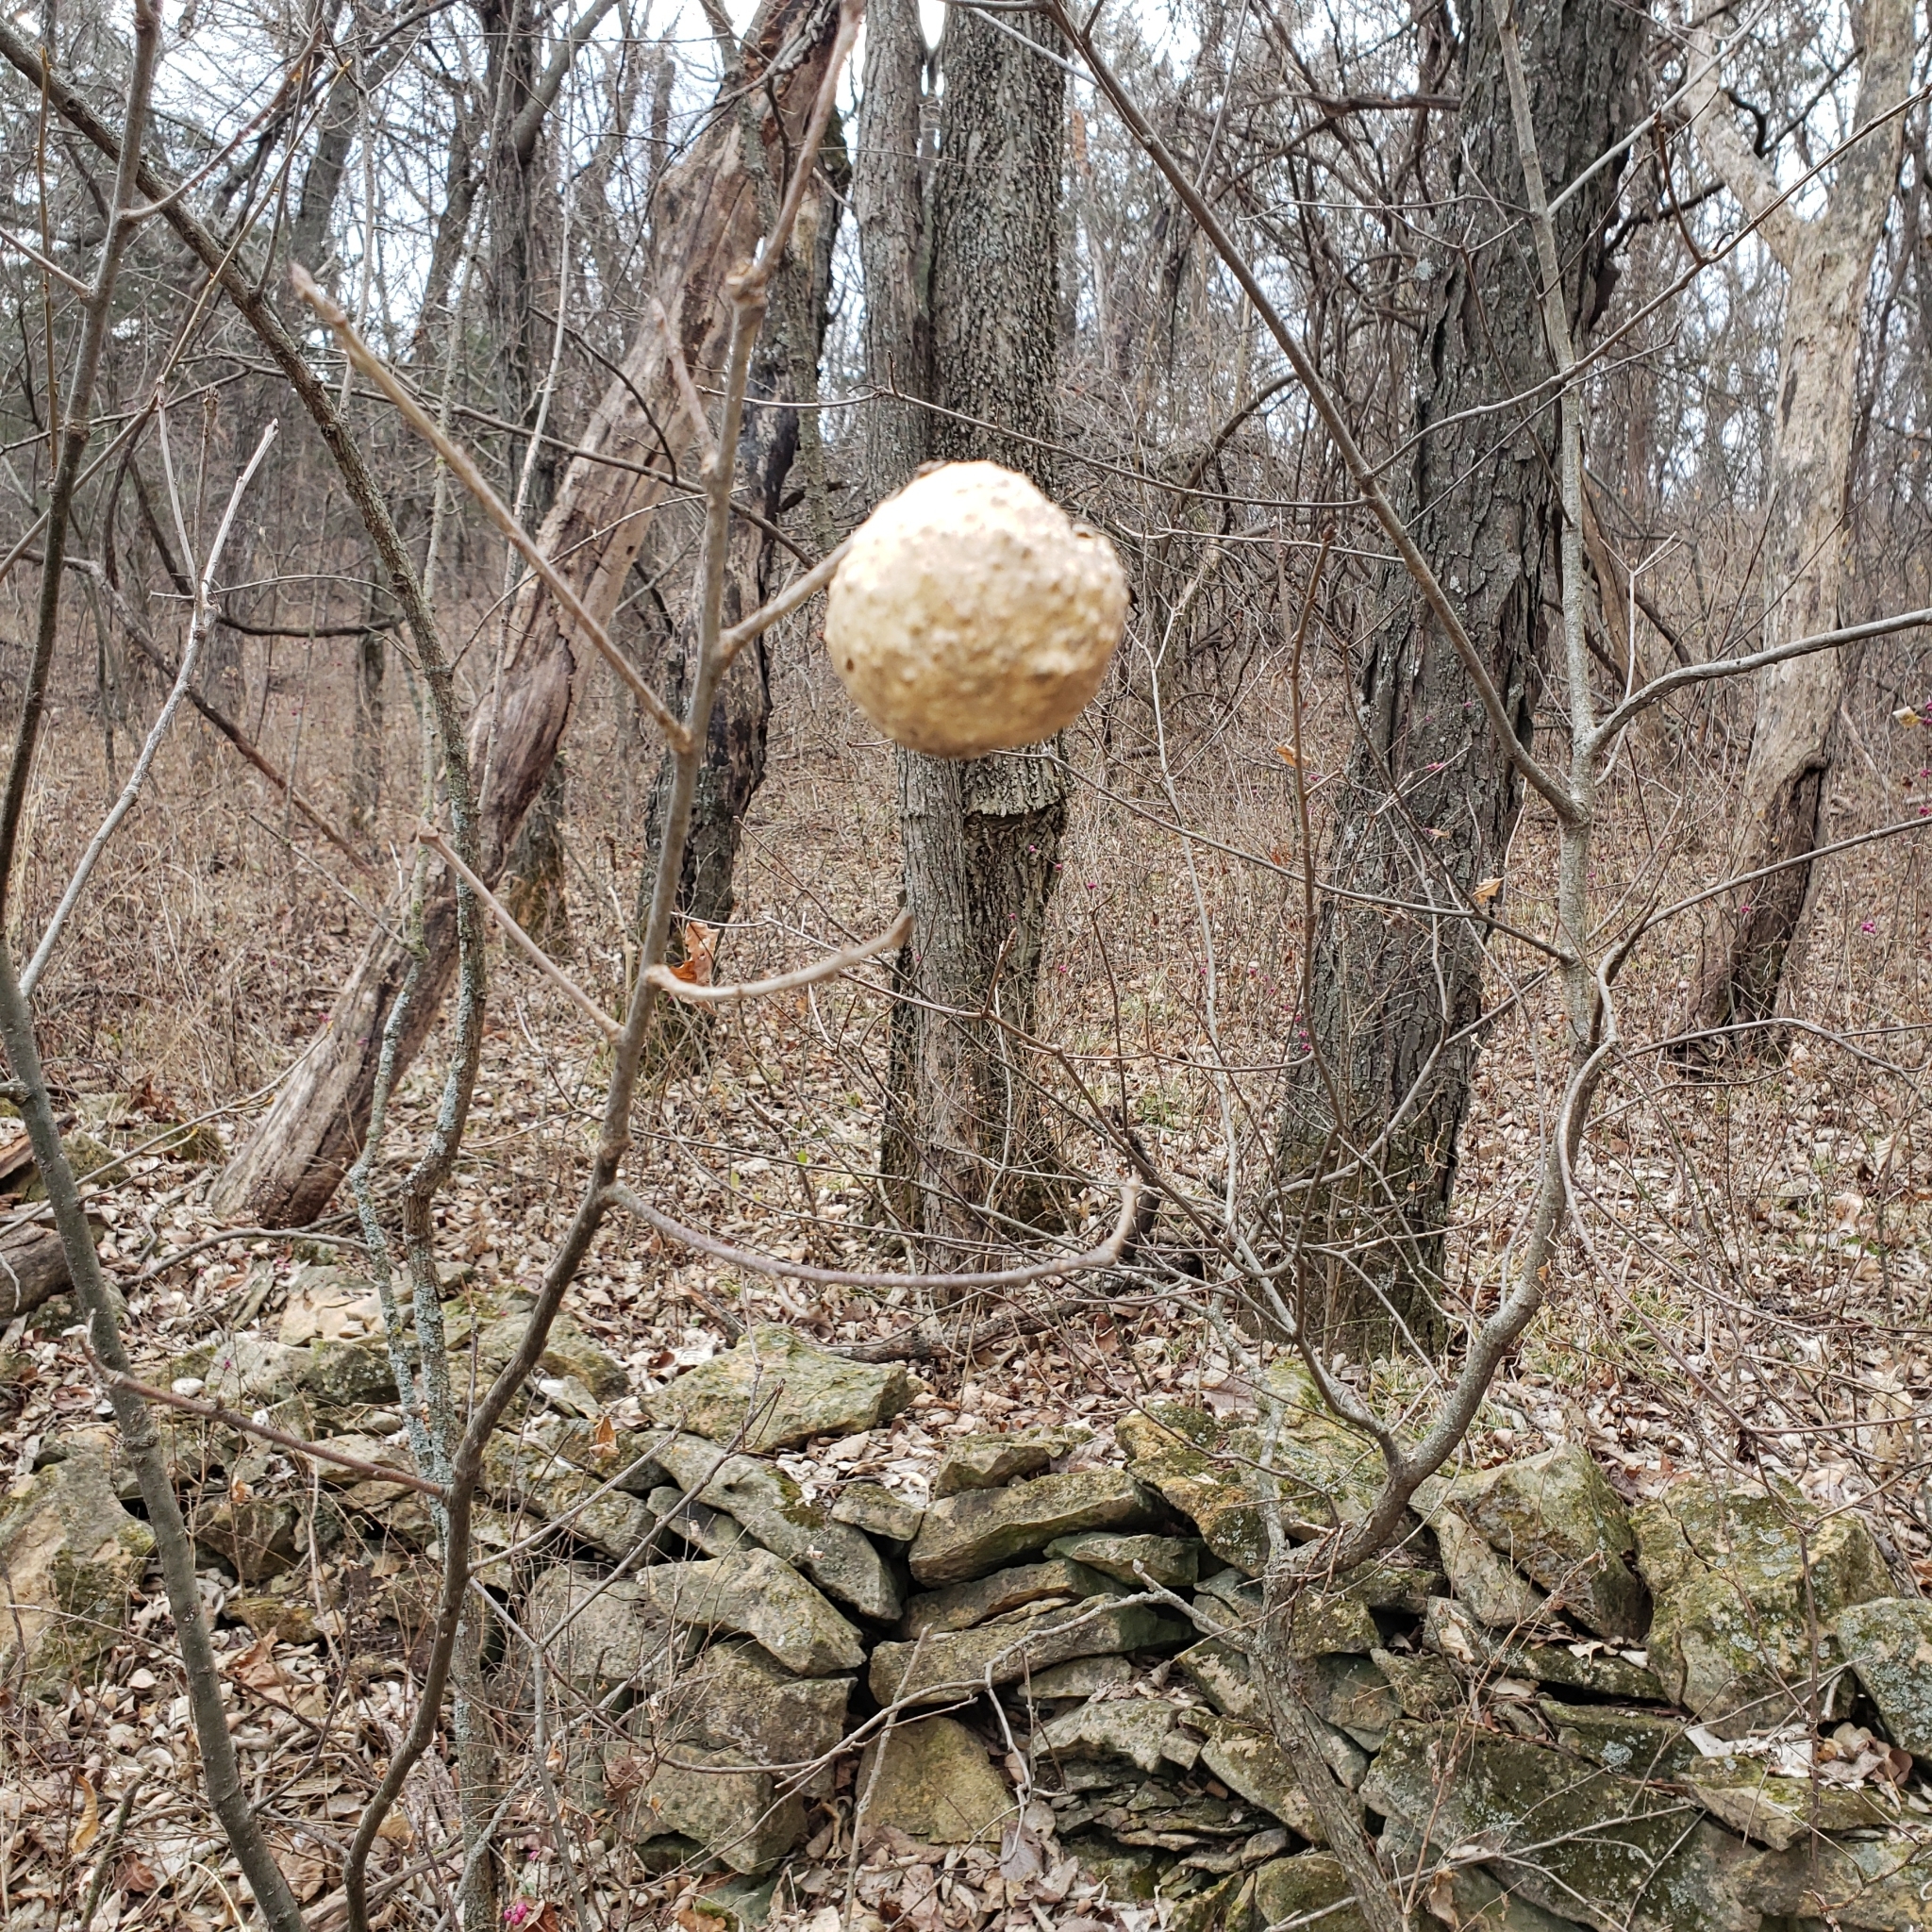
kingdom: Animalia
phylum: Arthropoda
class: Insecta
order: Hymenoptera
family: Cynipidae
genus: Amphibolips
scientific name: Amphibolips
